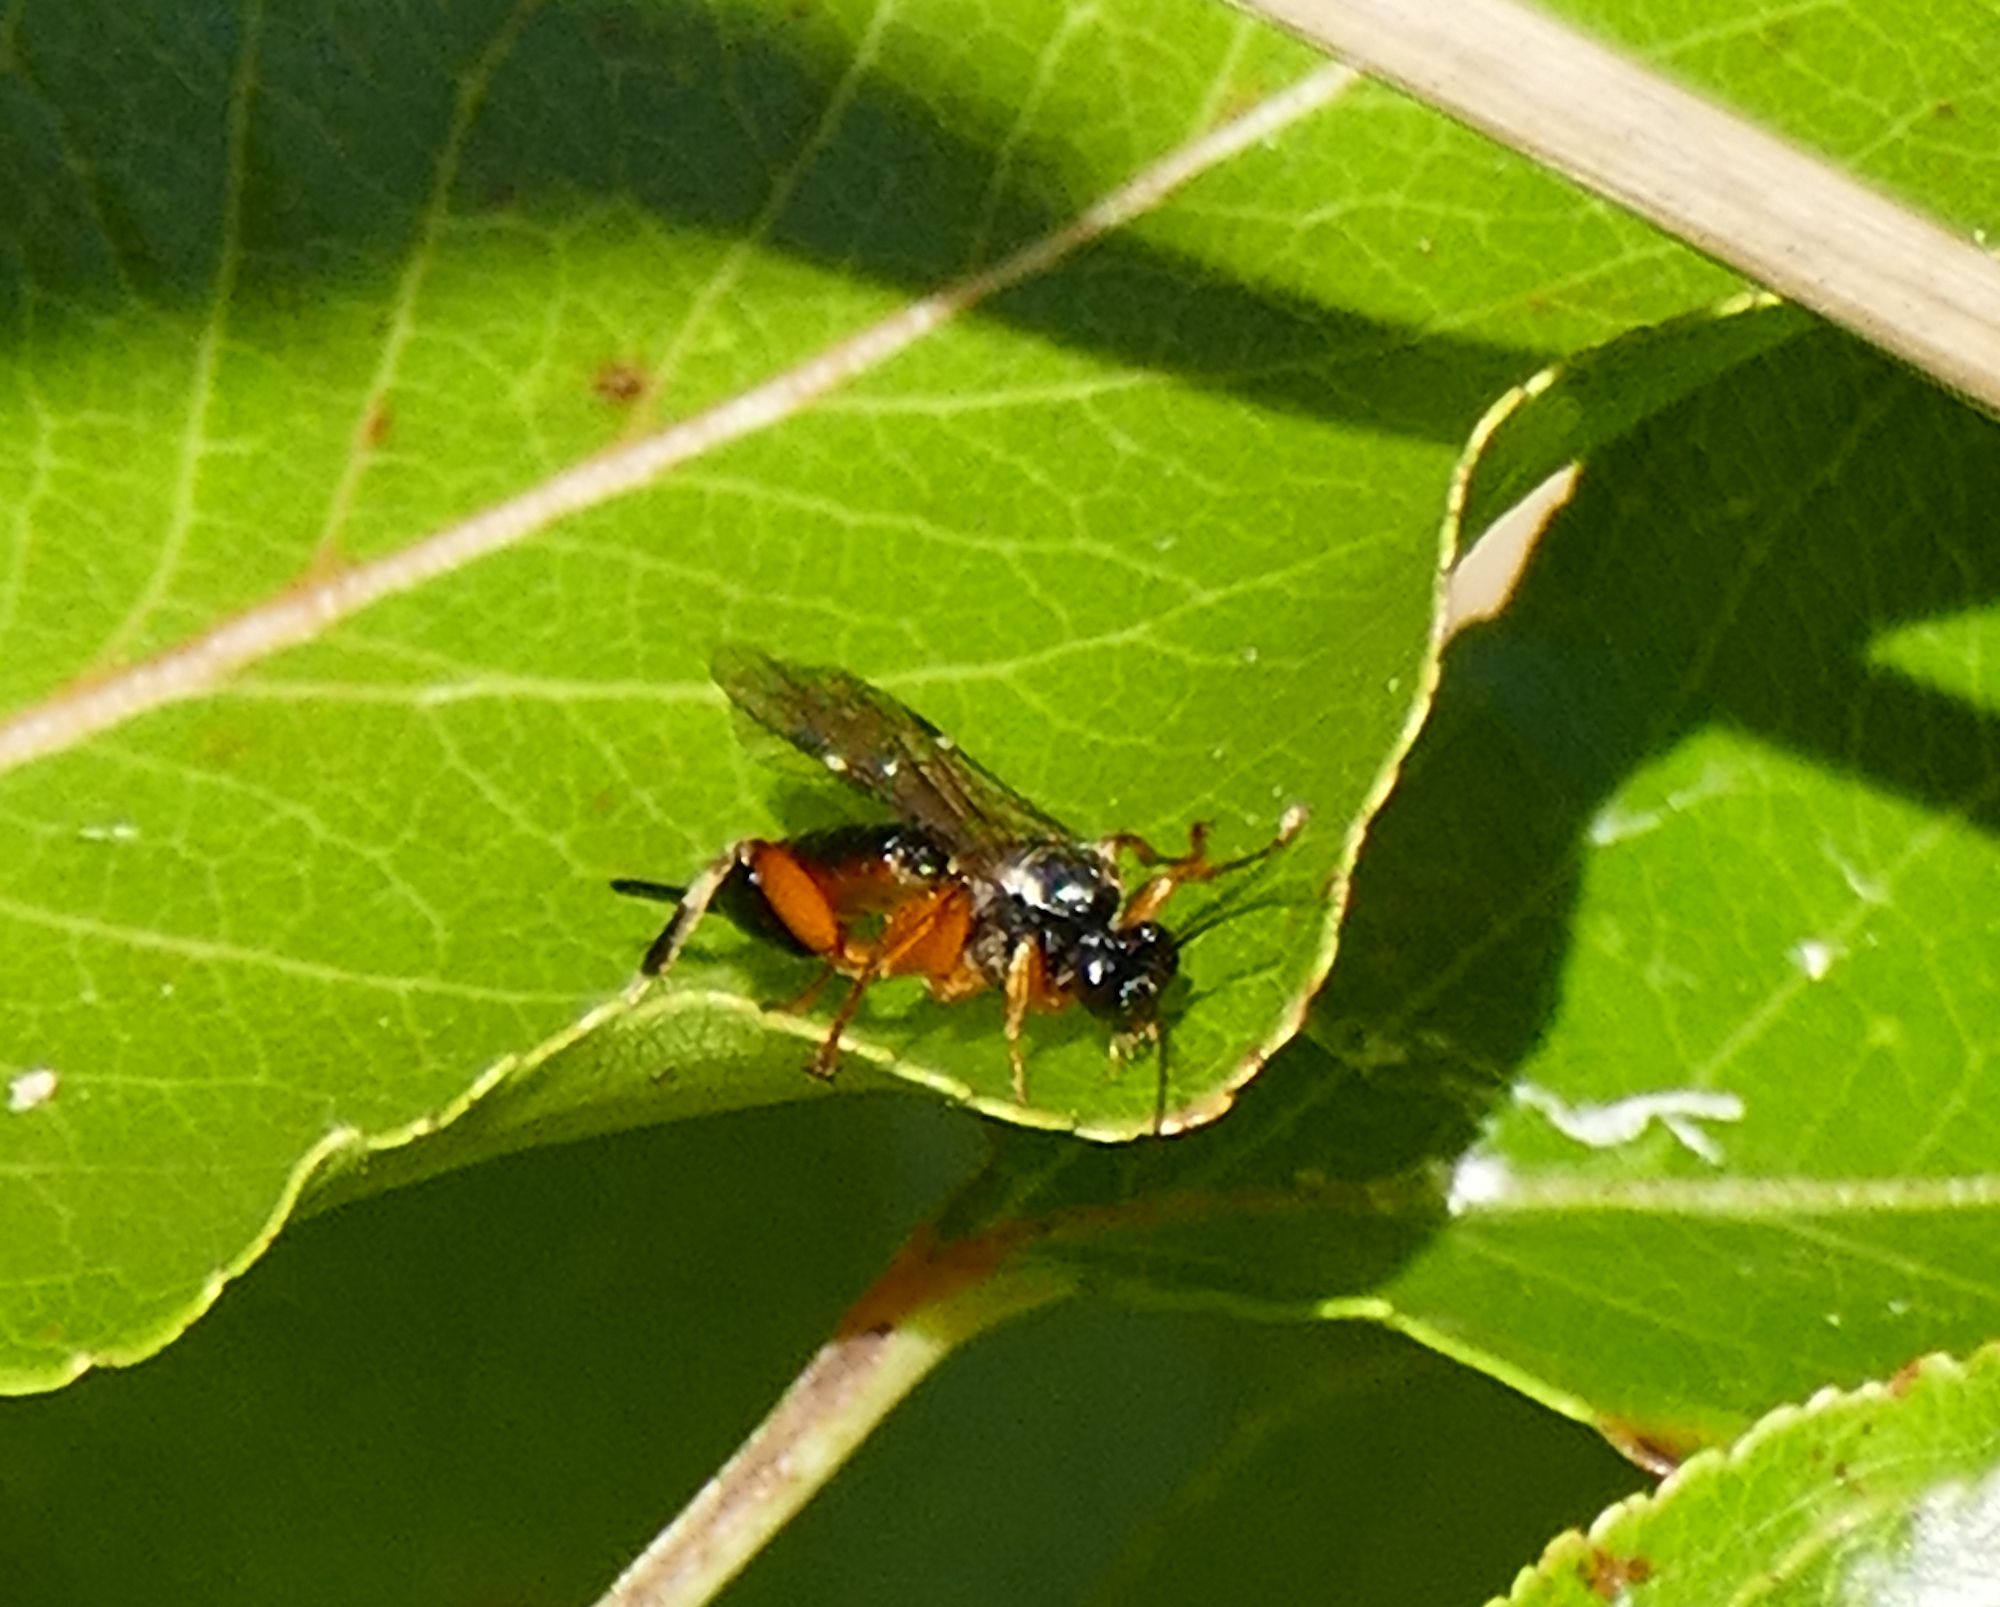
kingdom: Animalia
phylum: Arthropoda
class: Insecta
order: Hymenoptera
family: Ichneumonidae
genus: Diplazon
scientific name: Diplazon laetatorius
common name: Parasitoid wasp
